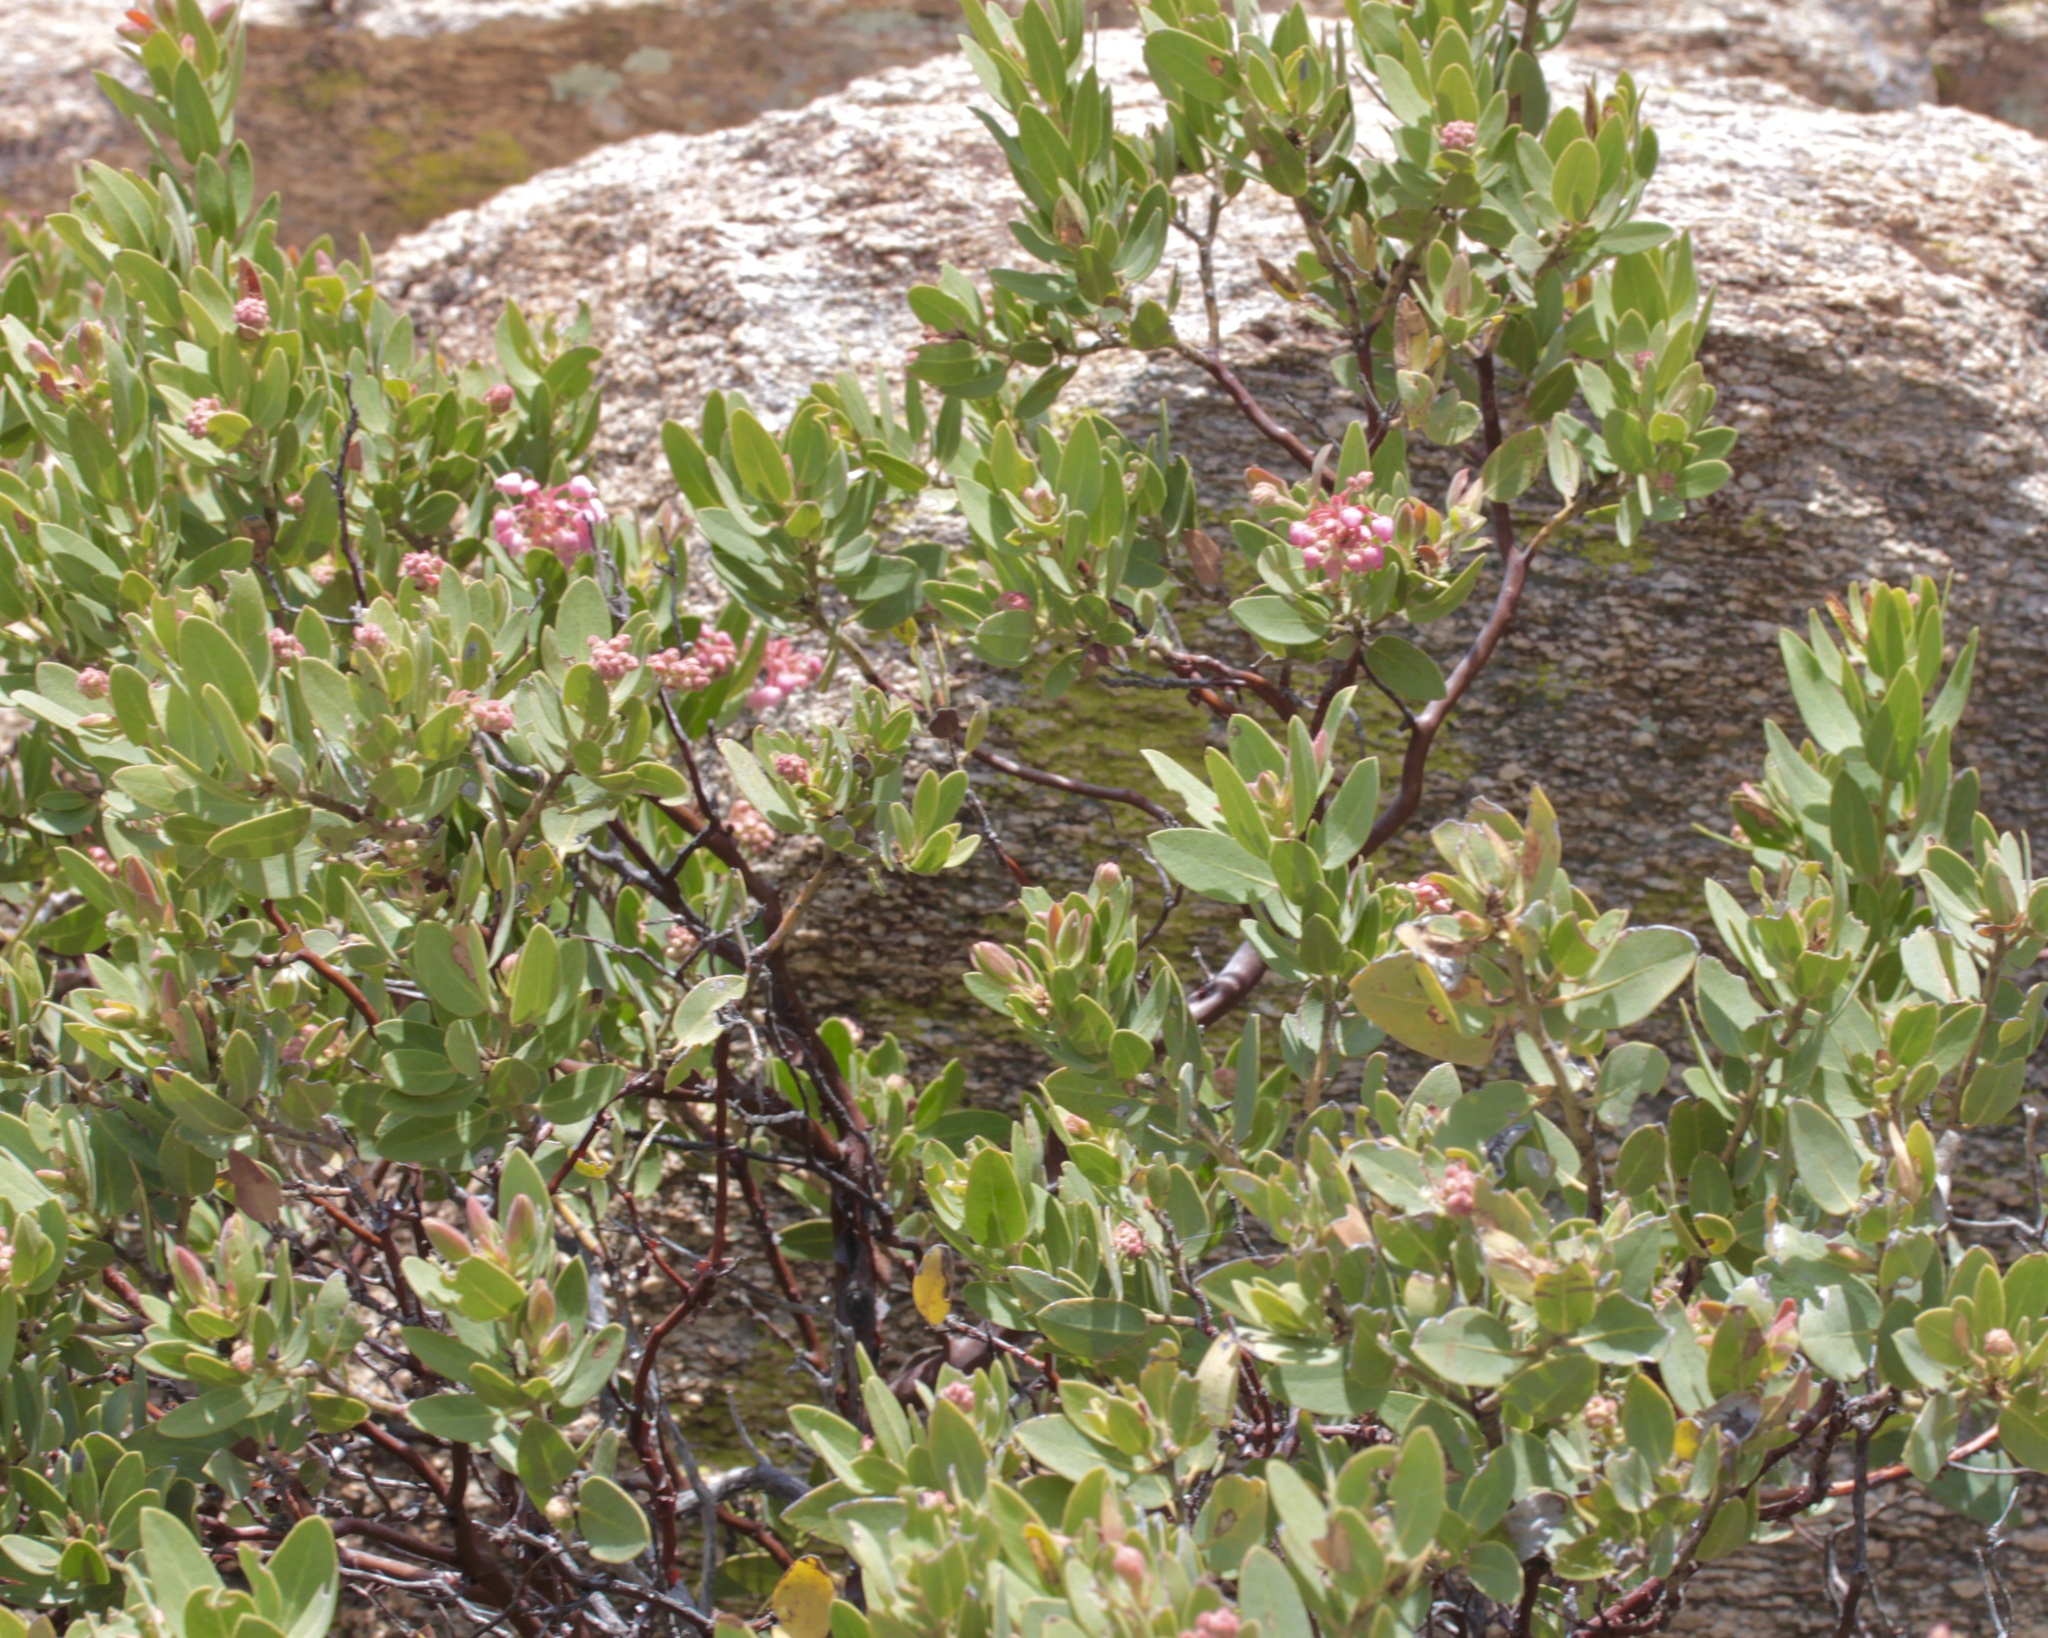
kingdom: Plantae
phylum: Tracheophyta
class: Magnoliopsida
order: Ericales
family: Ericaceae
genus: Arctostaphylos
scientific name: Arctostaphylos pringlei
